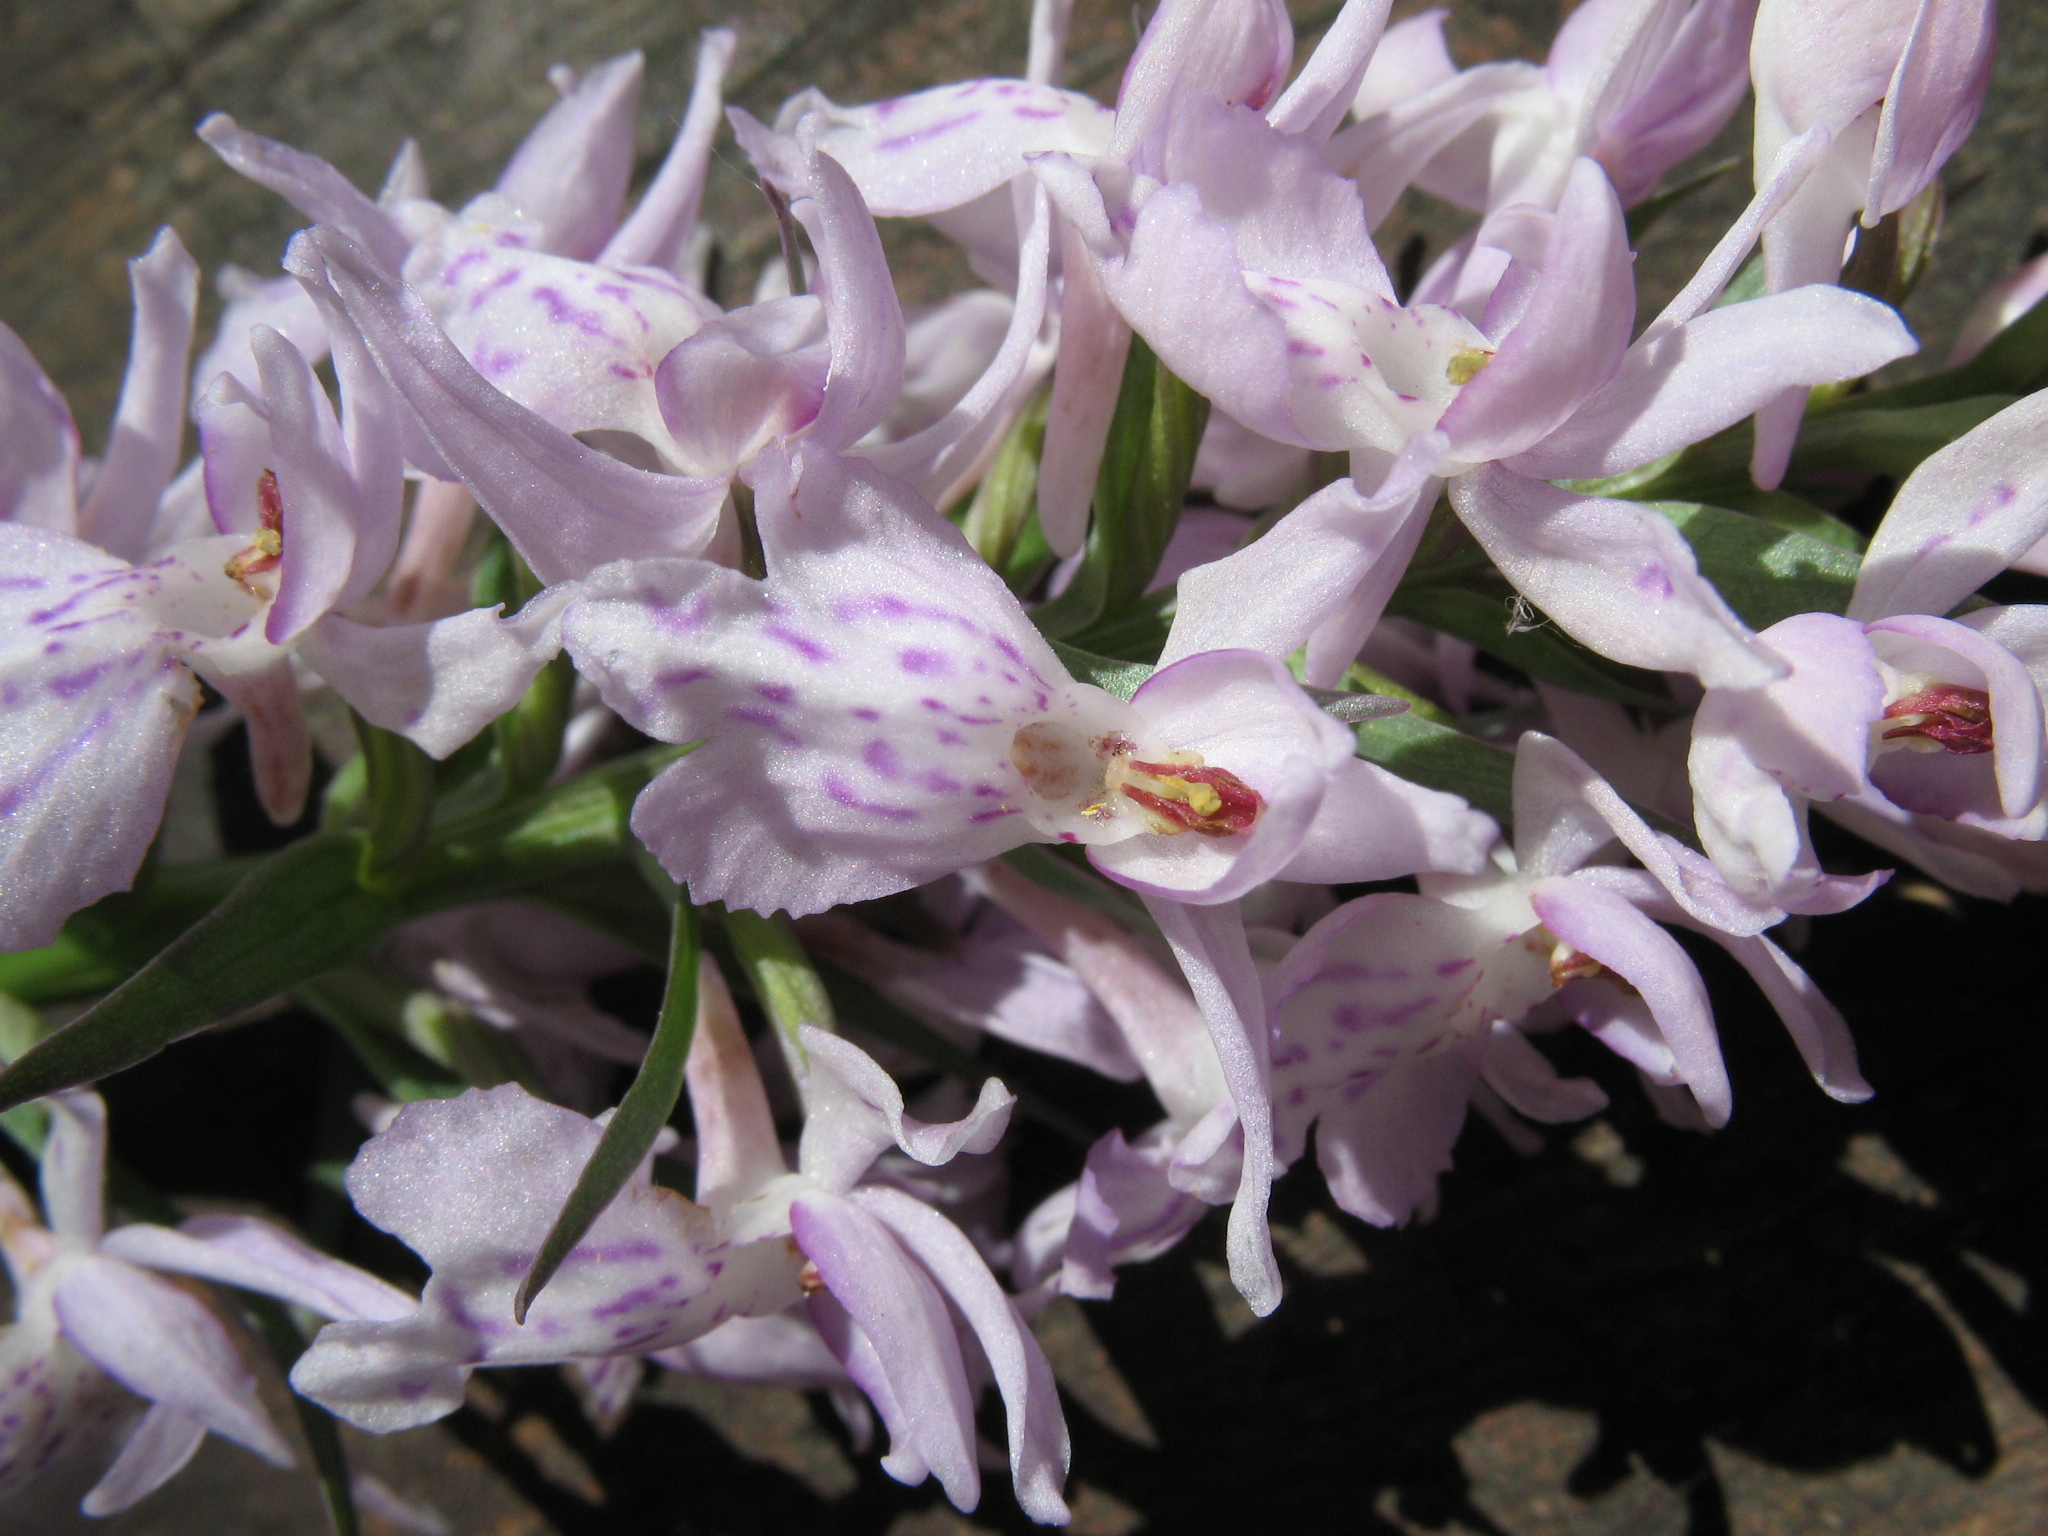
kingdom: Plantae
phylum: Tracheophyta
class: Liliopsida
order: Asparagales
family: Orchidaceae
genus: Dactylorhiza
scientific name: Dactylorhiza maculata
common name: Heath spotted-orchid
